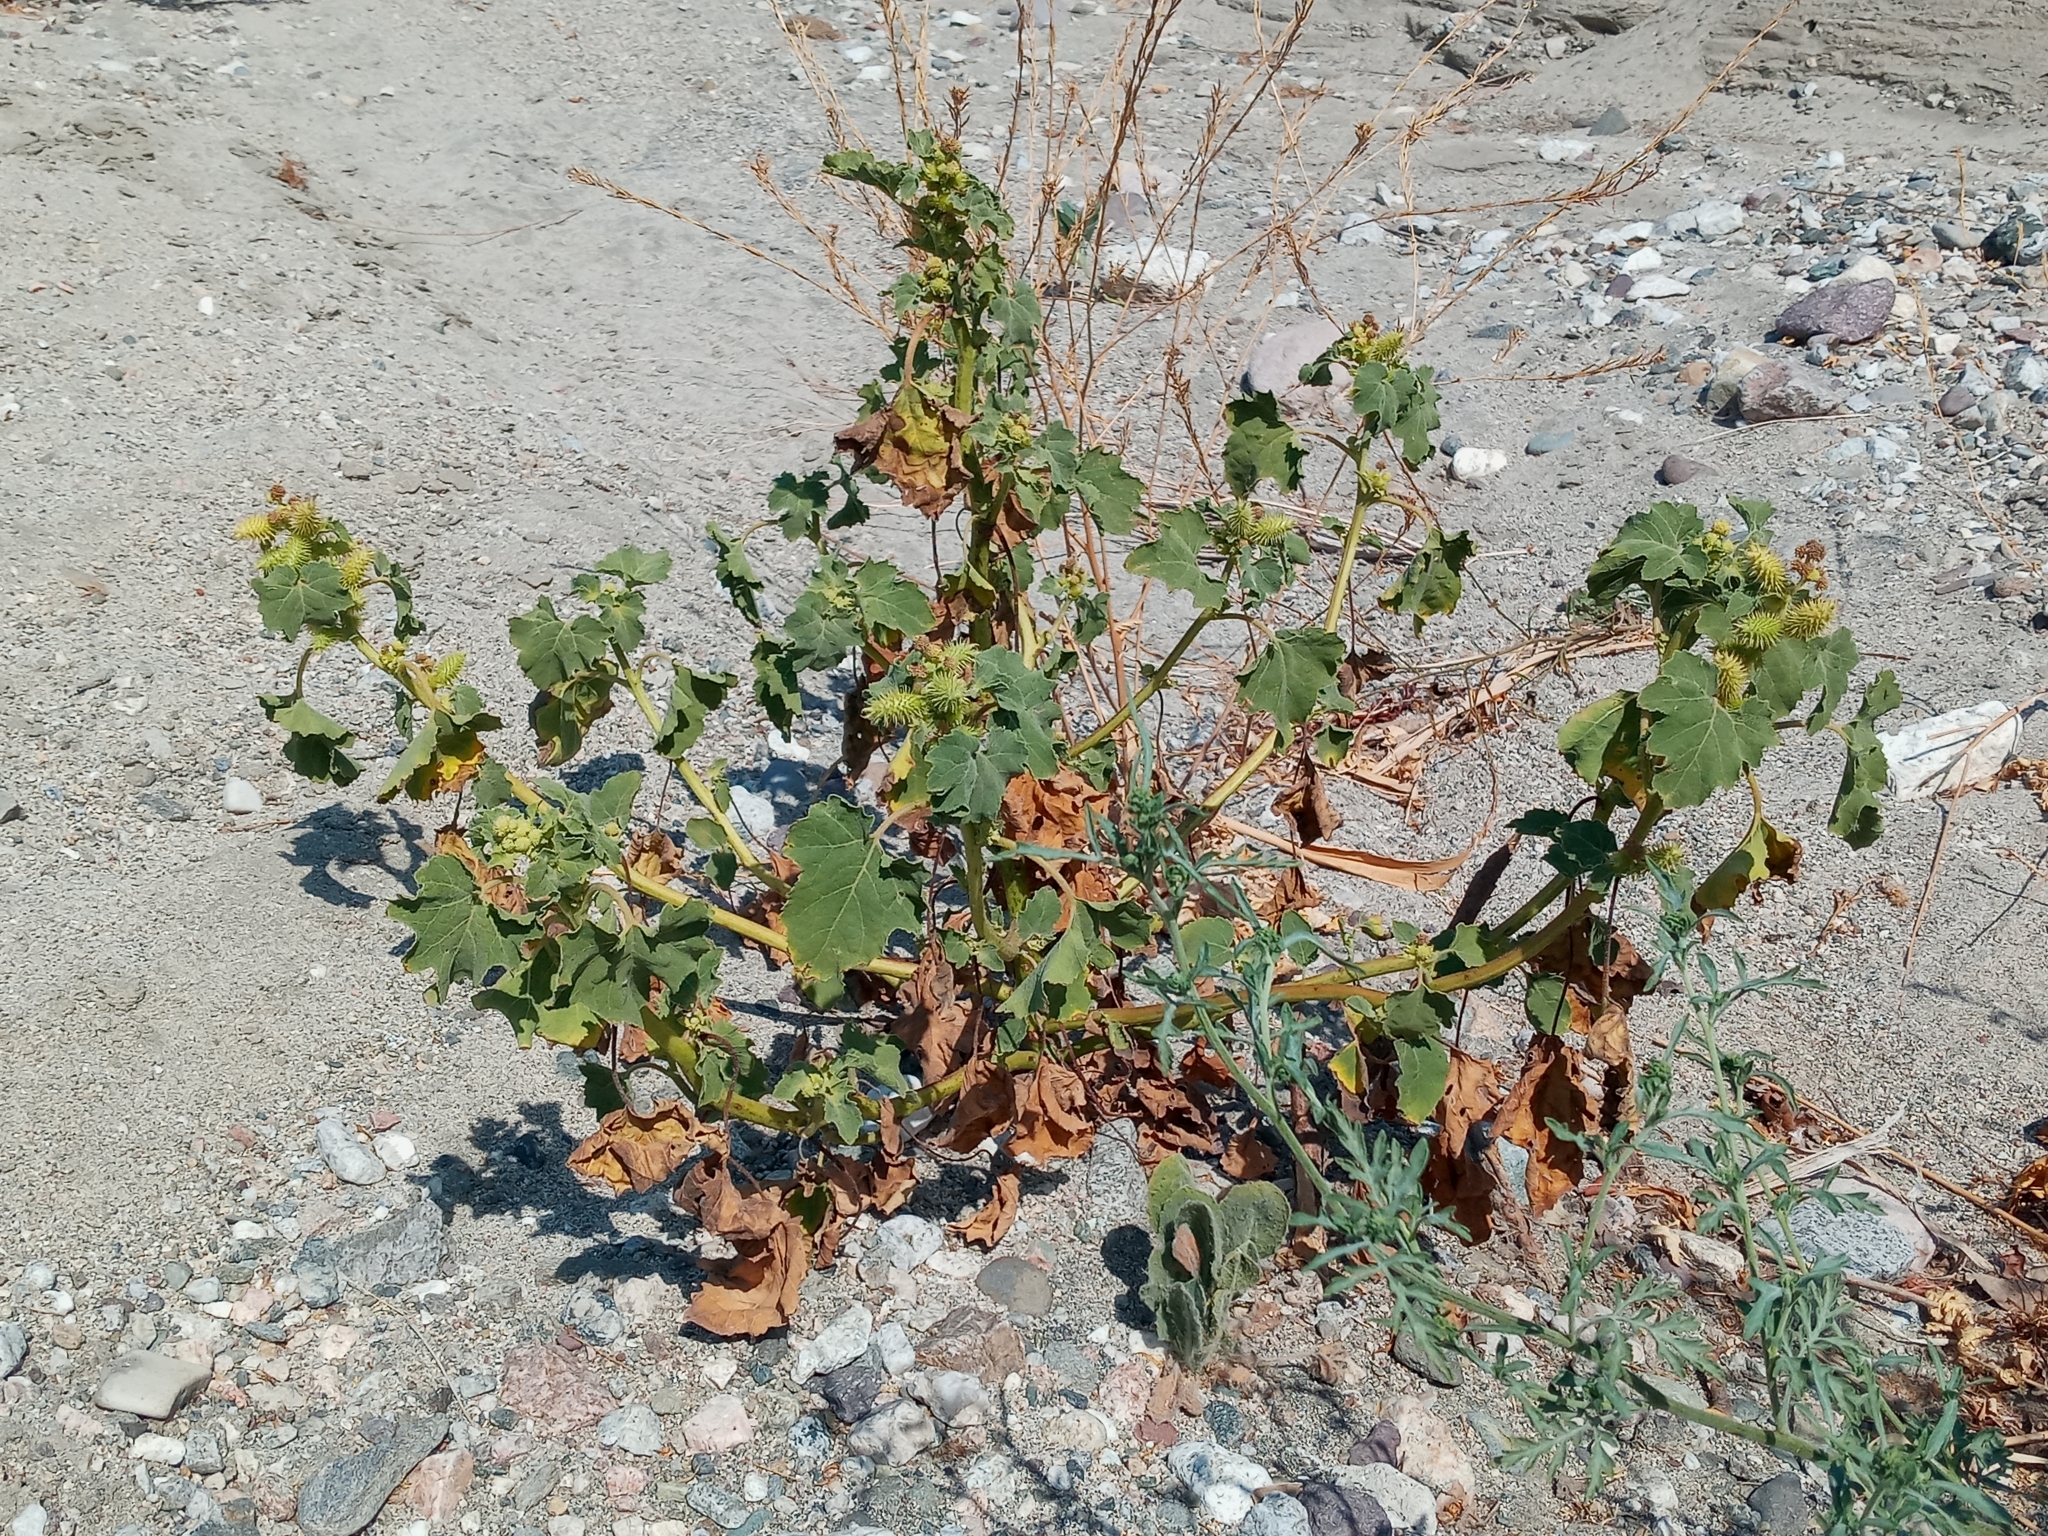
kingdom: Plantae
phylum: Tracheophyta
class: Magnoliopsida
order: Asterales
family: Asteraceae
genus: Xanthium
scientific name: Xanthium strumarium
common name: Rough cocklebur
